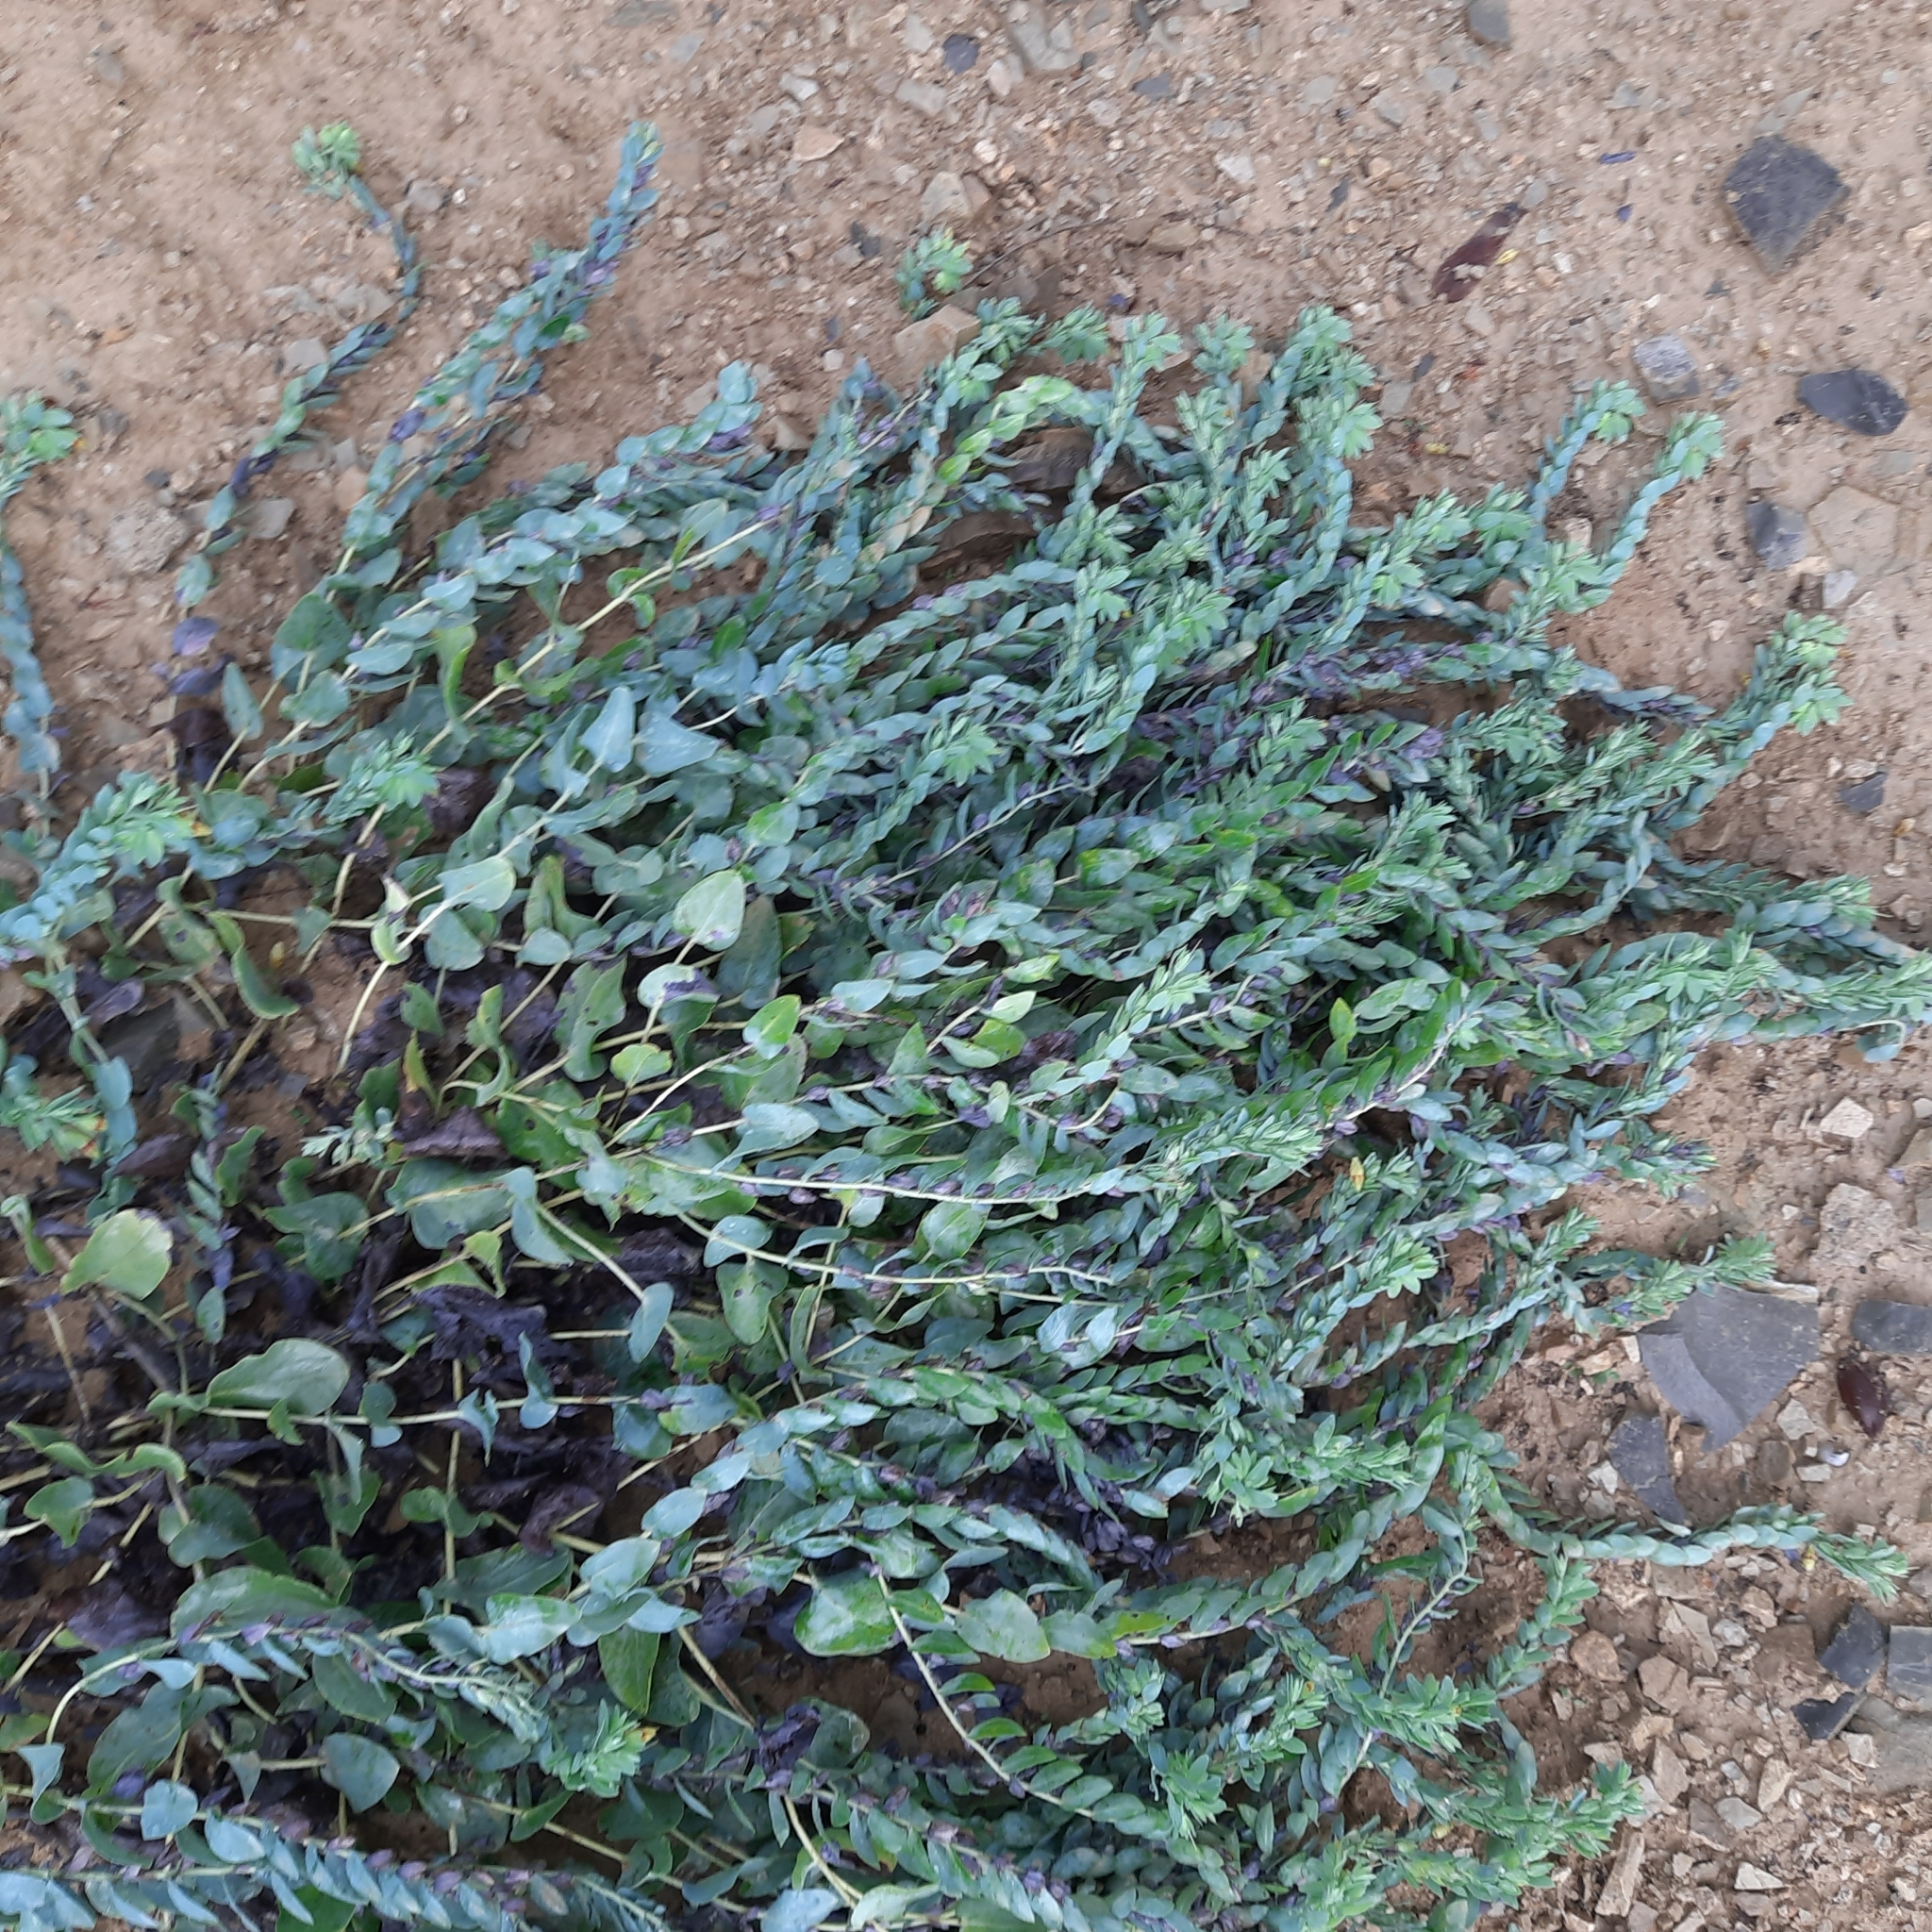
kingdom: Plantae
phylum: Tracheophyta
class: Magnoliopsida
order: Boraginales
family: Boraginaceae
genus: Cerinthe
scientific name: Cerinthe minor
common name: Lesser honeywort
